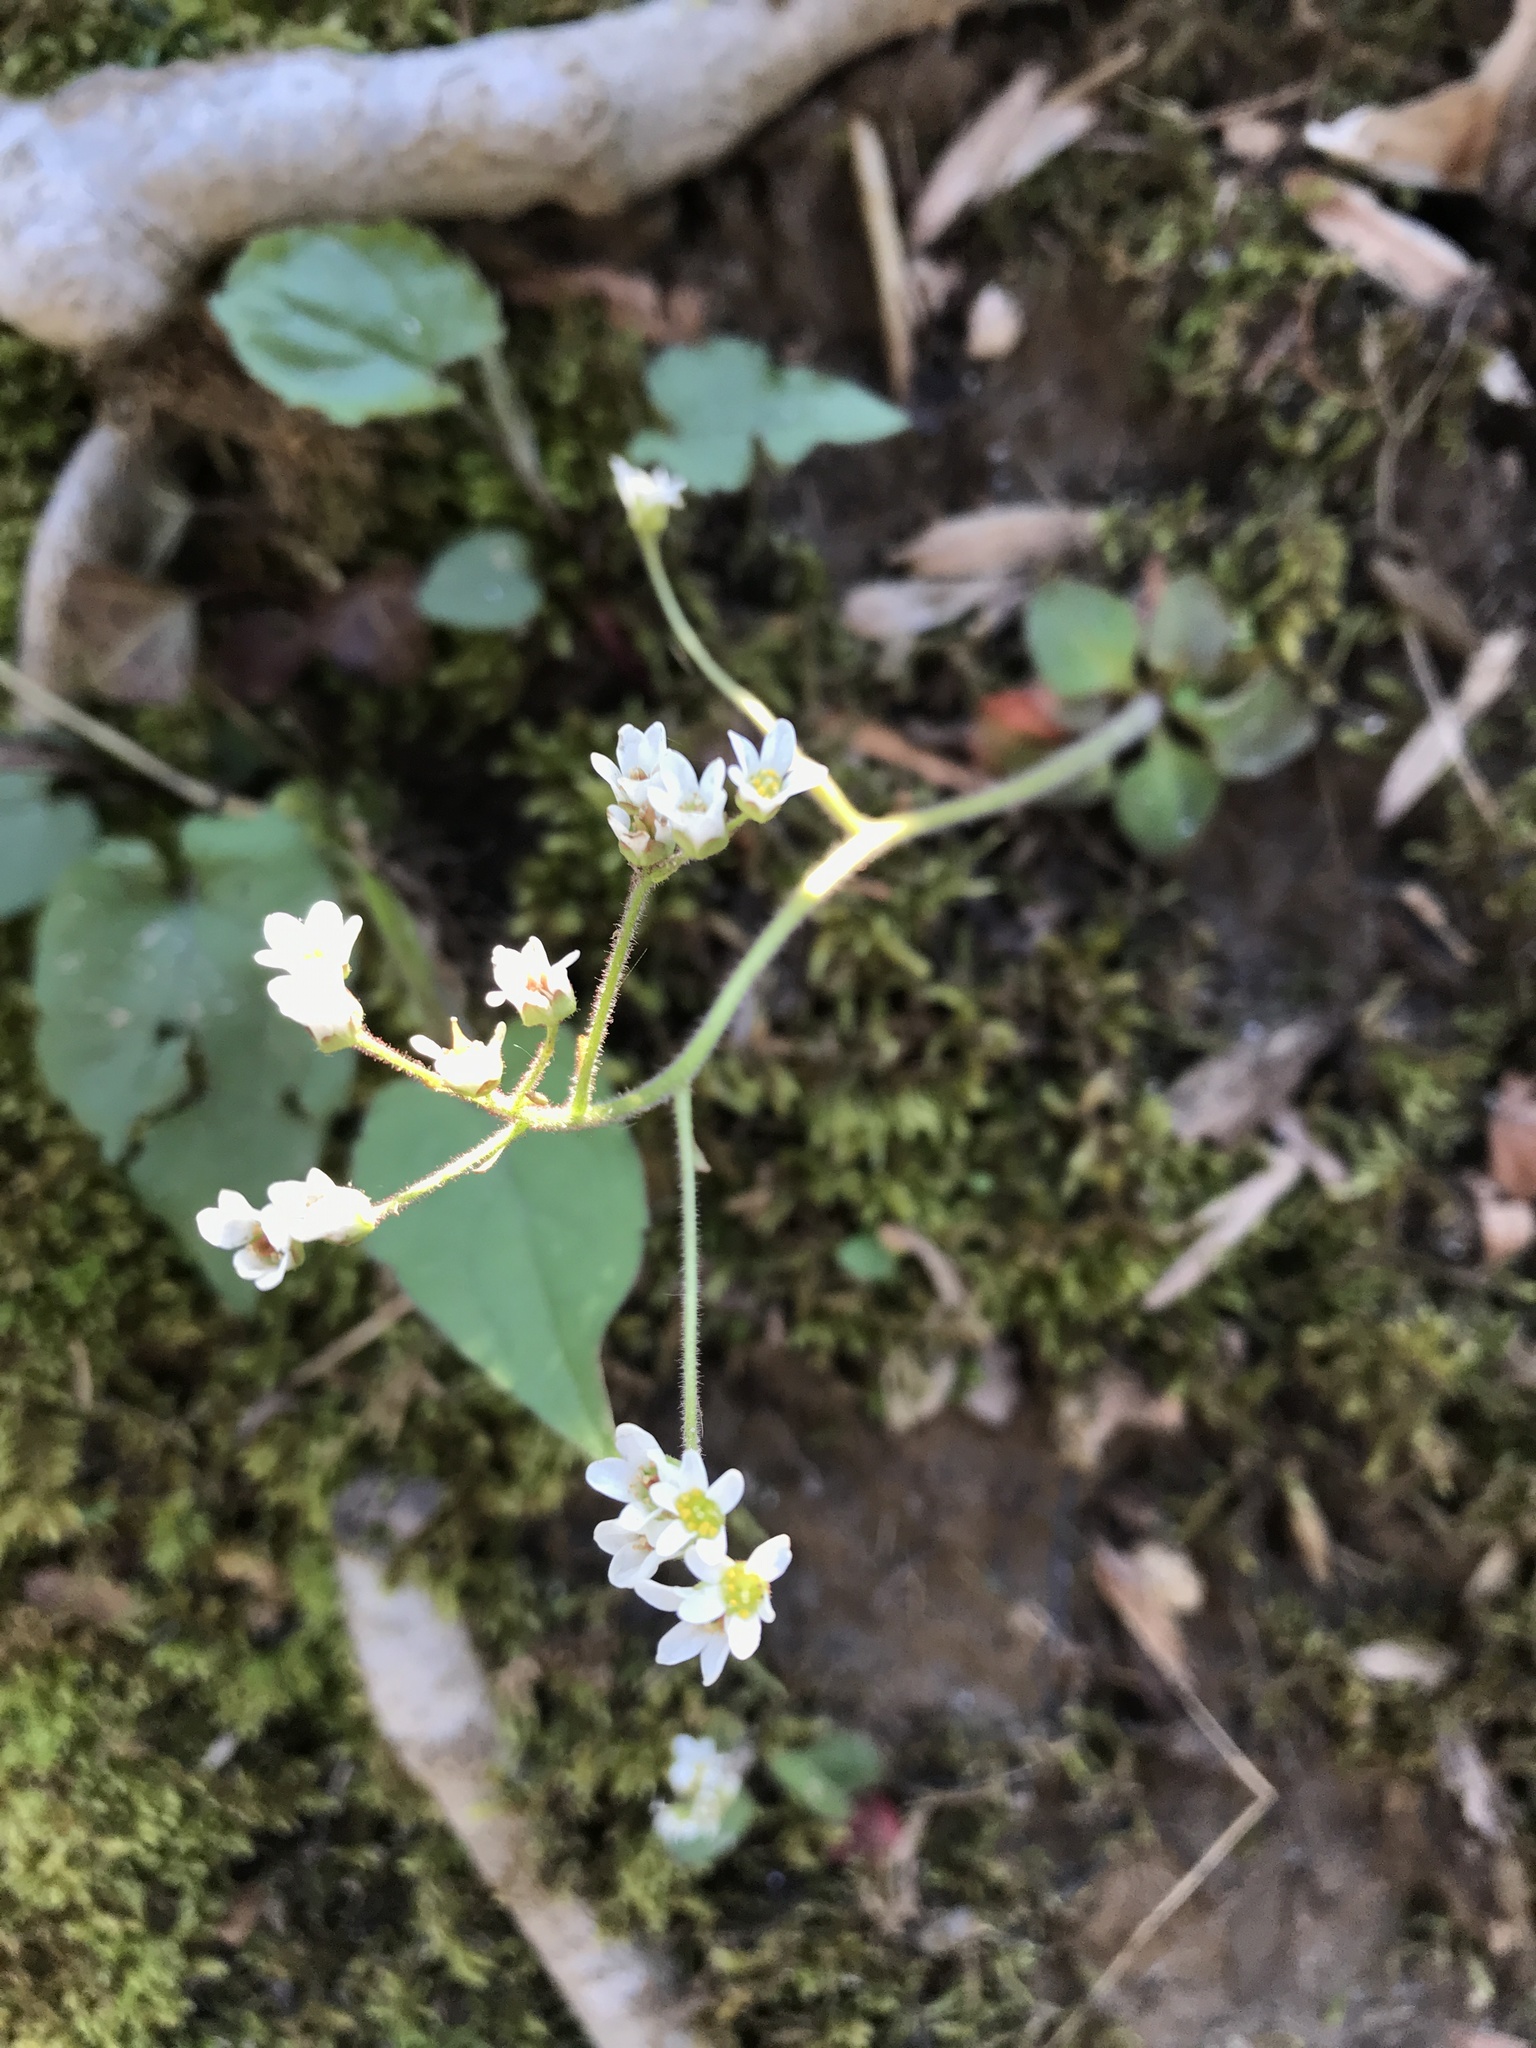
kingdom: Plantae
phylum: Tracheophyta
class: Magnoliopsida
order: Saxifragales
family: Saxifragaceae
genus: Micranthes
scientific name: Micranthes virginiensis
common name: Early saxifrage
